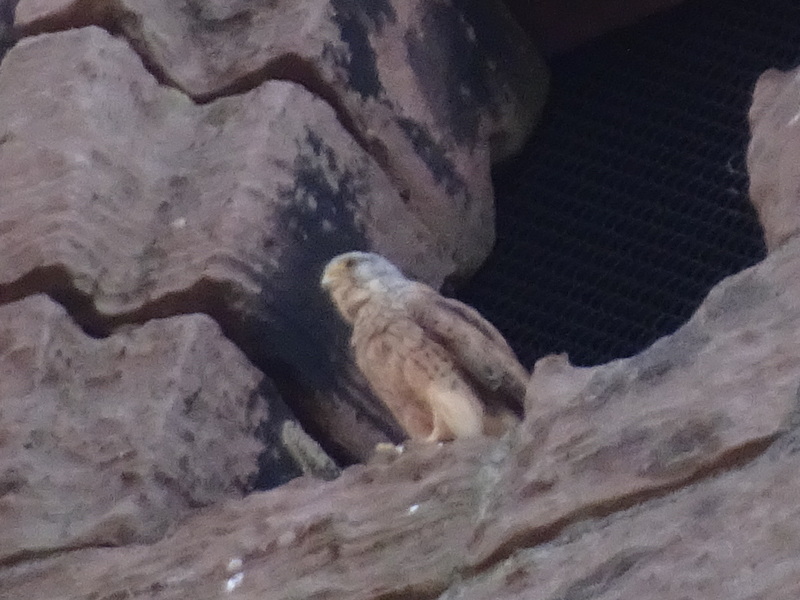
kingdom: Animalia
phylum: Chordata
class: Aves
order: Falconiformes
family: Falconidae
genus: Falco
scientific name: Falco tinnunculus
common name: Common kestrel
